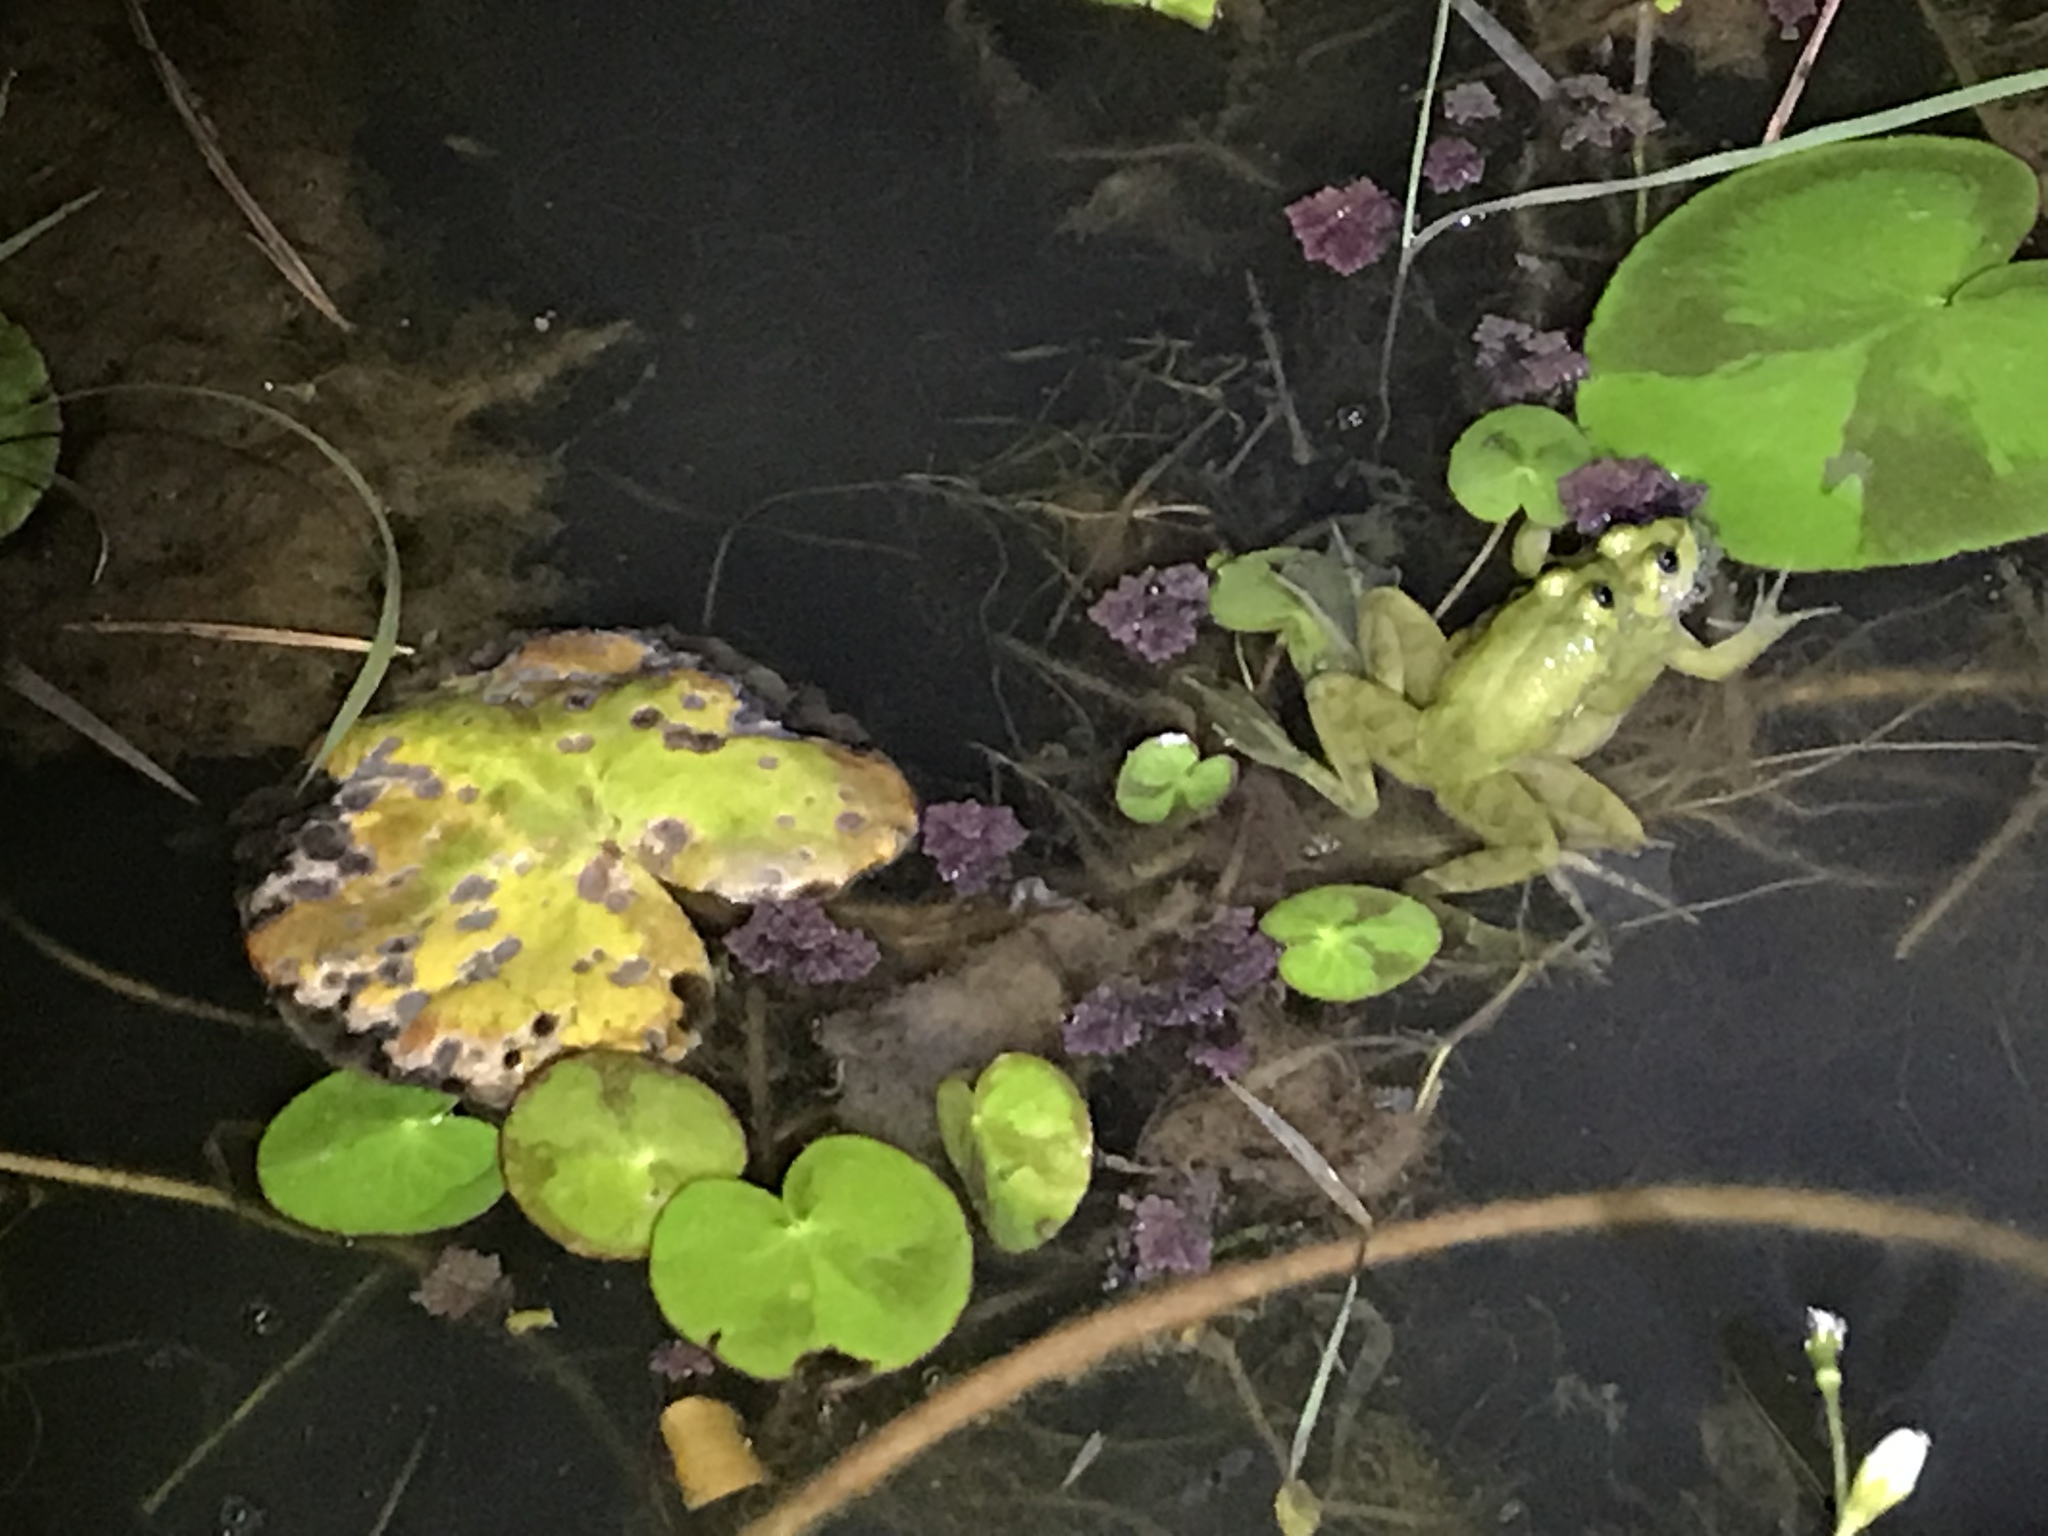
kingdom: Animalia
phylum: Chordata
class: Amphibia
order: Anura
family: Hylidae
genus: Pseudis
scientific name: Pseudis minuta
